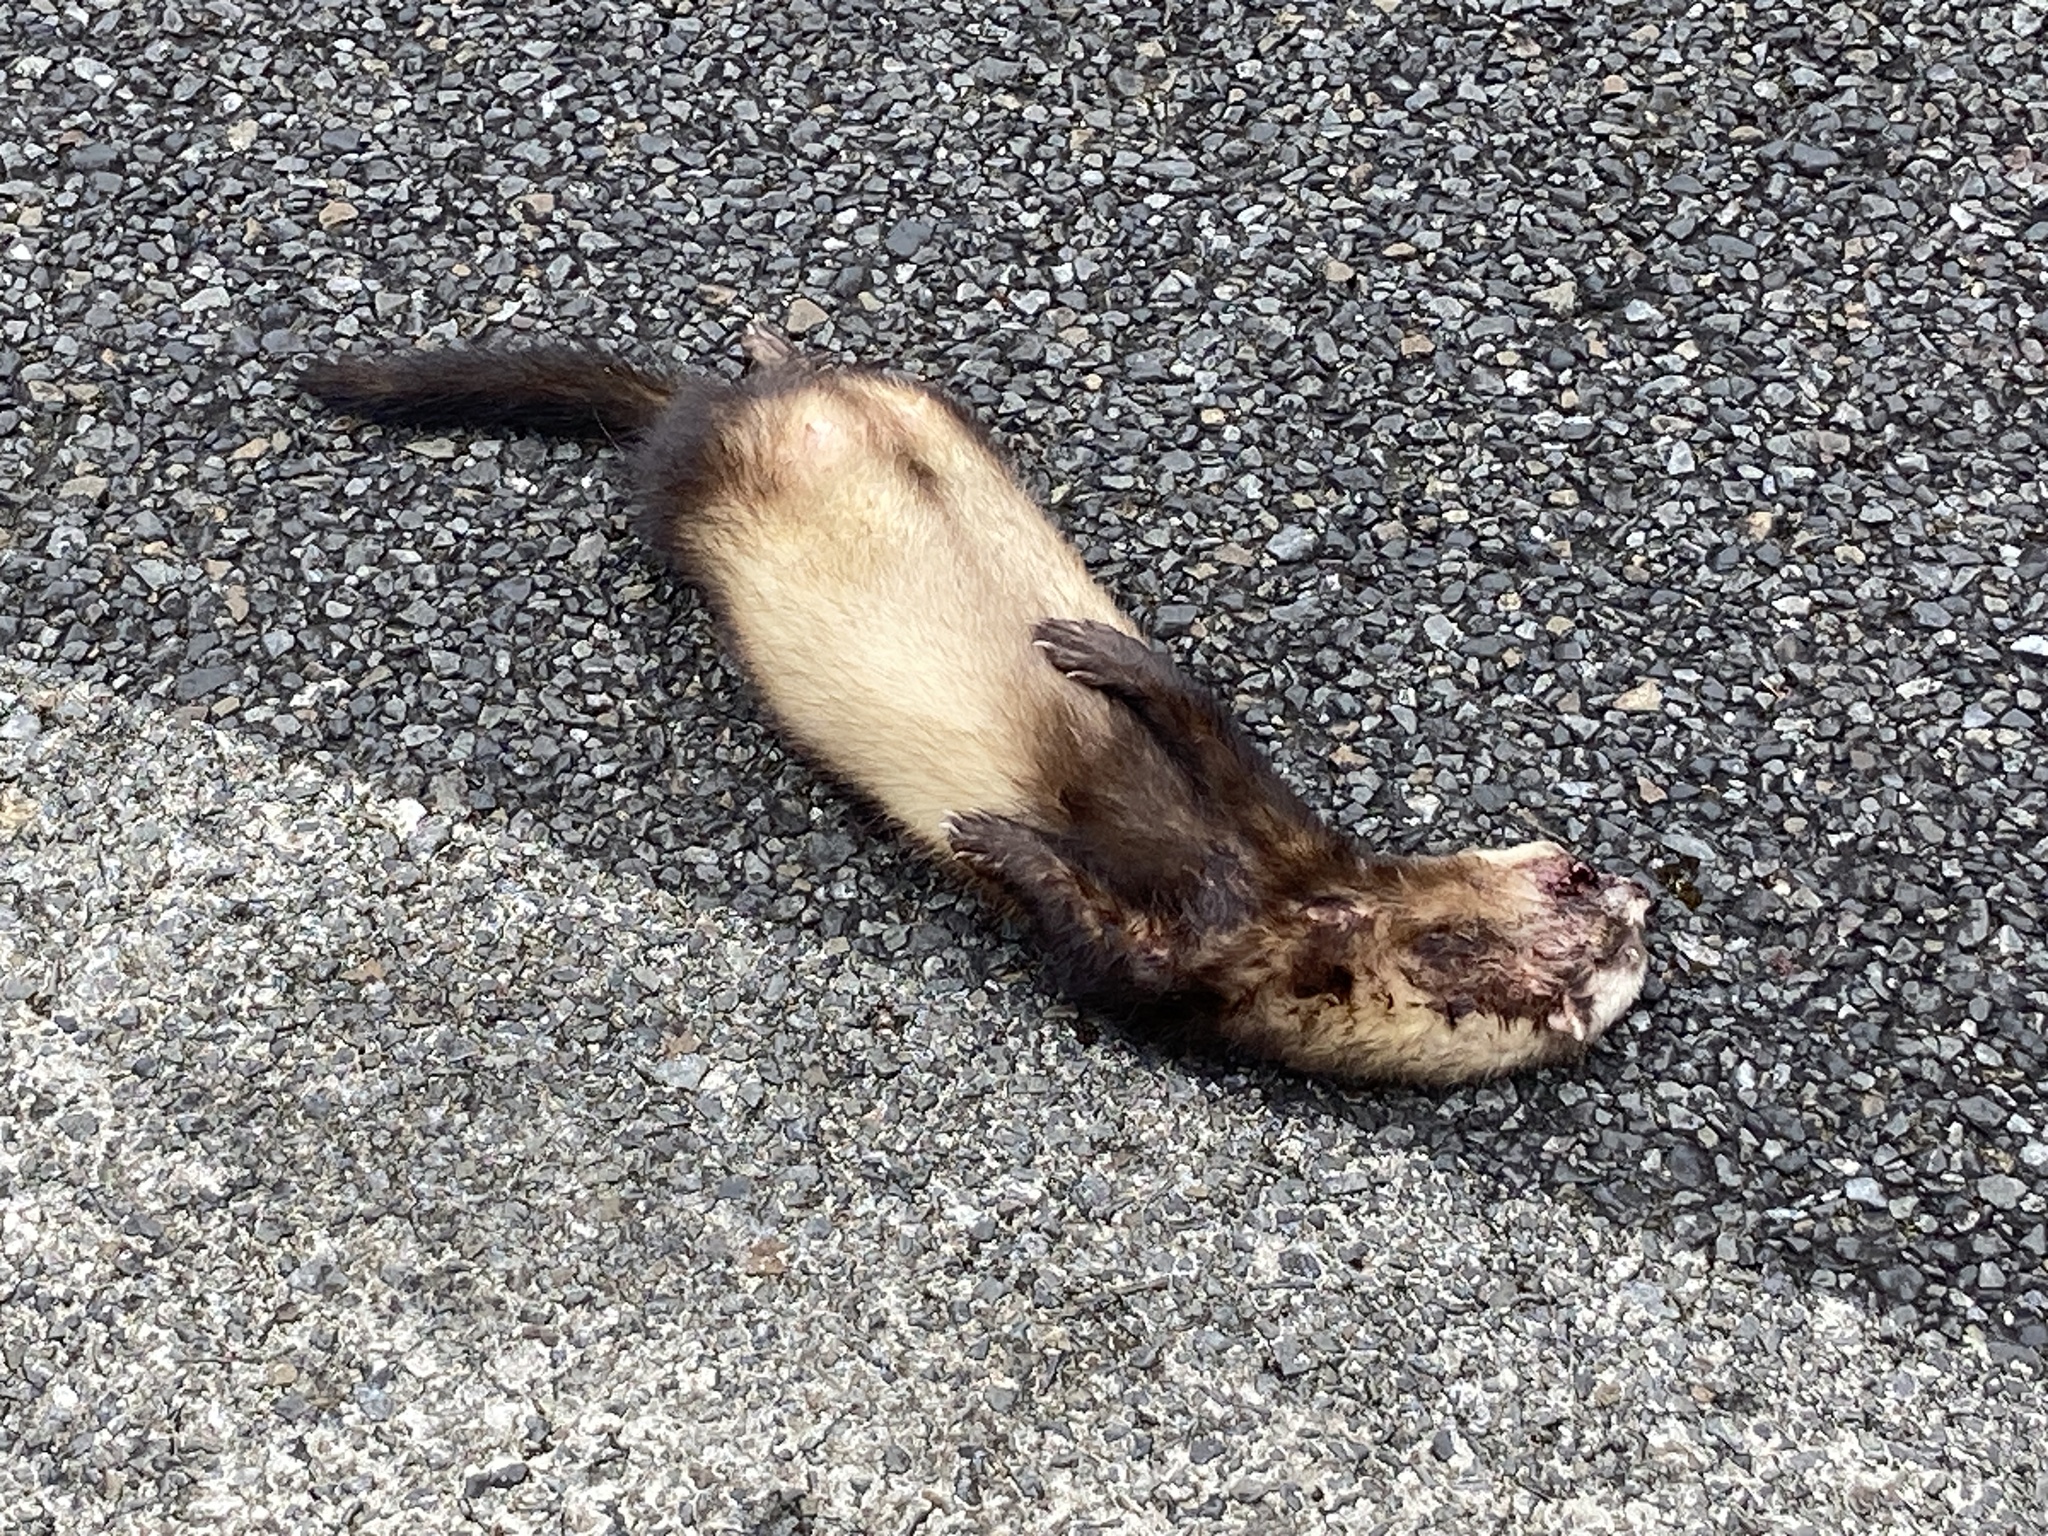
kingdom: Animalia
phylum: Chordata
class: Mammalia
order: Carnivora
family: Mustelidae
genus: Mustela
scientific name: Mustela putorius
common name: European polecat
